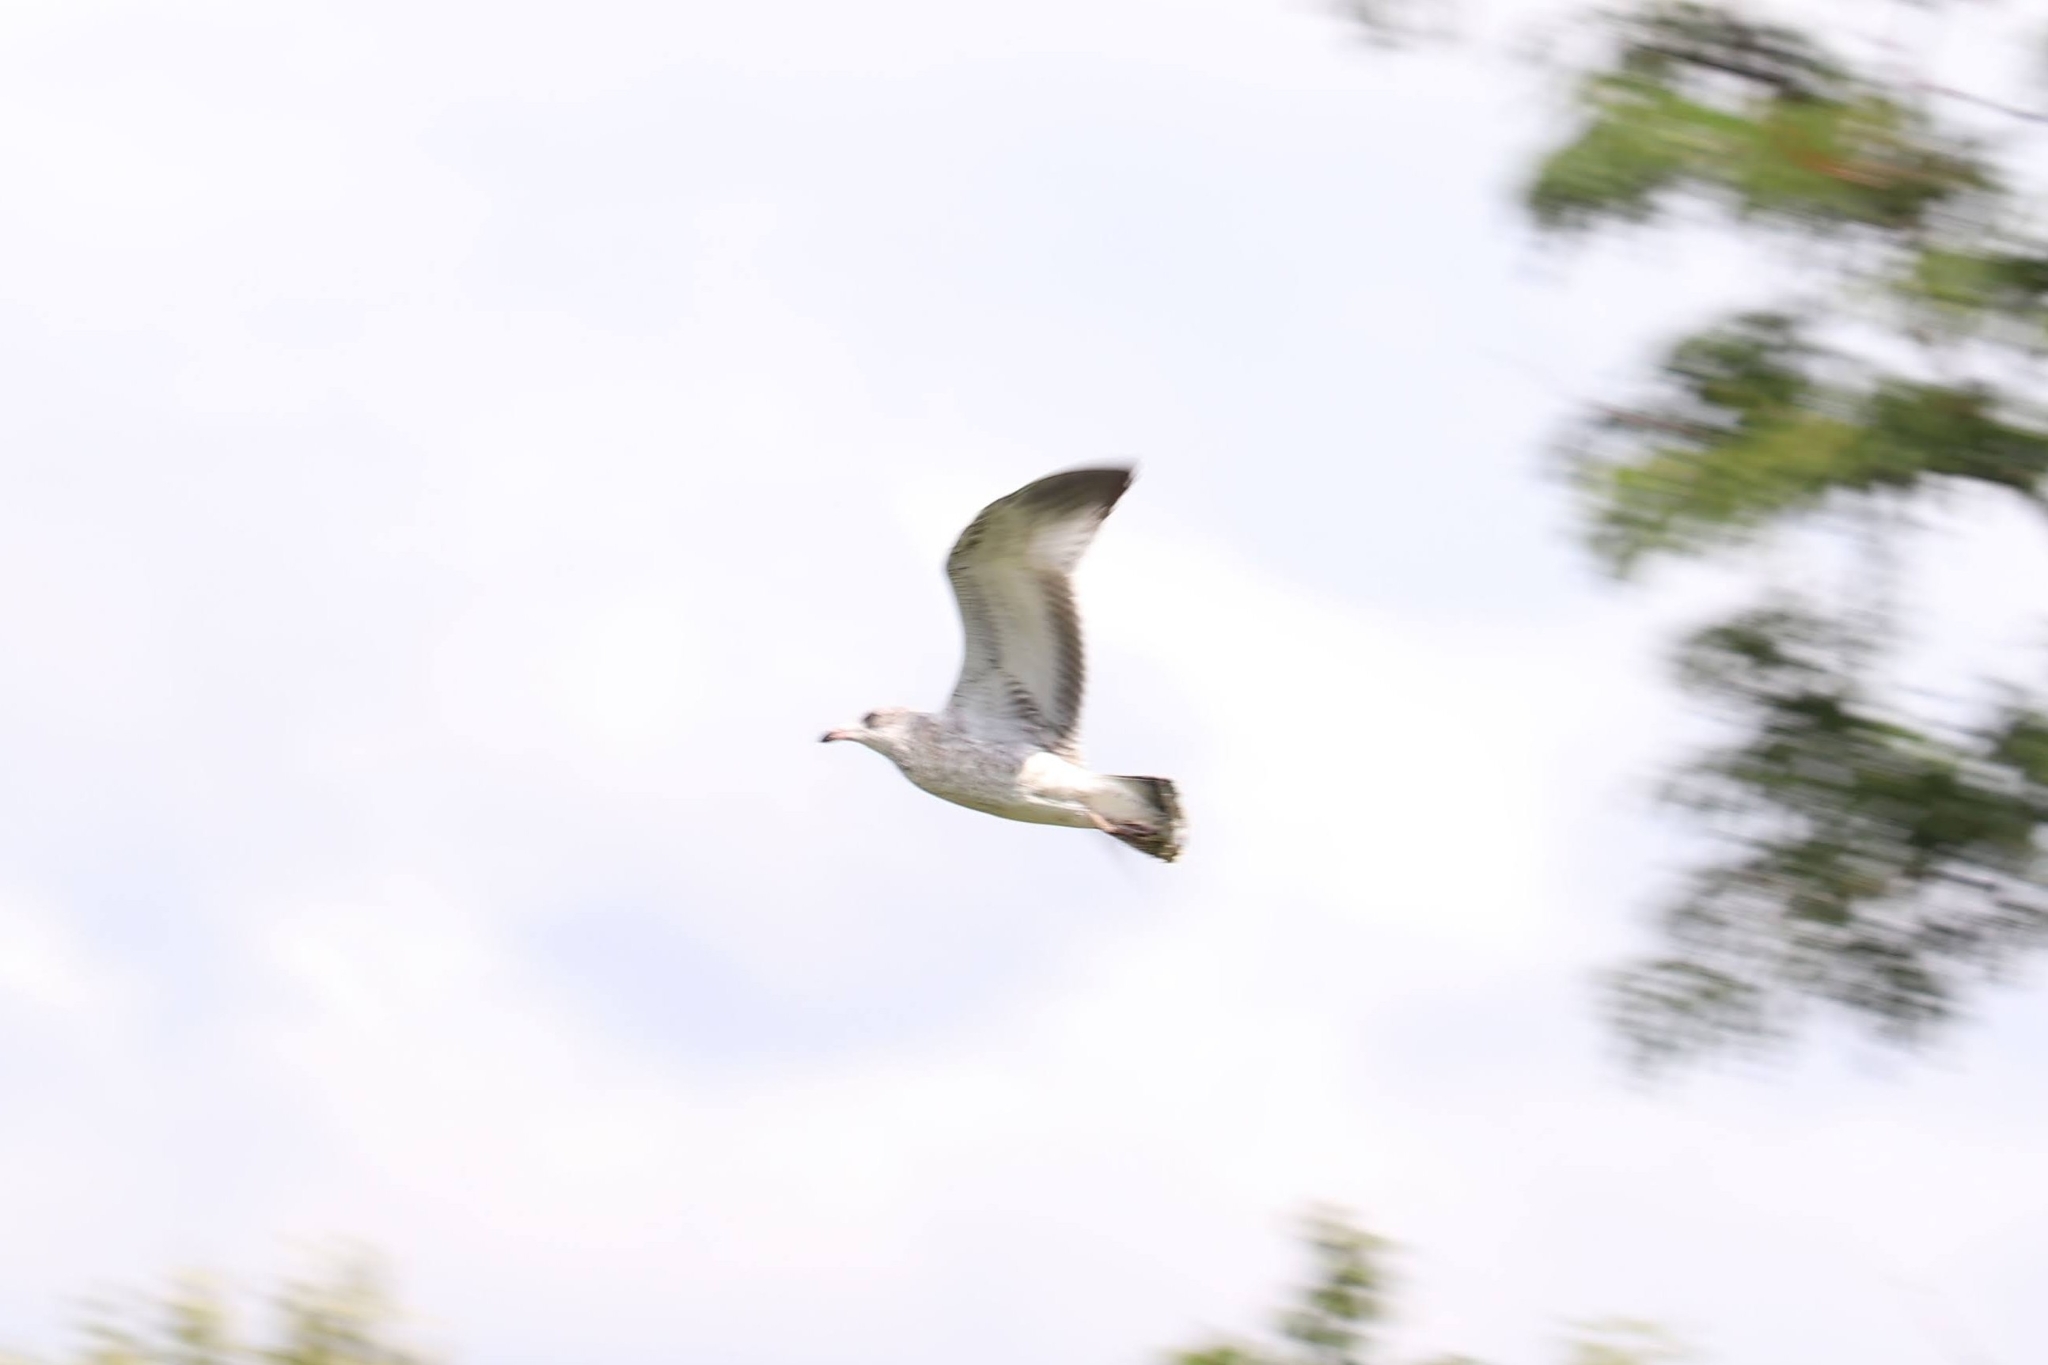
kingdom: Animalia
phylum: Chordata
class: Aves
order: Charadriiformes
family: Laridae
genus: Larus
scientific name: Larus delawarensis
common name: Ring-billed gull
